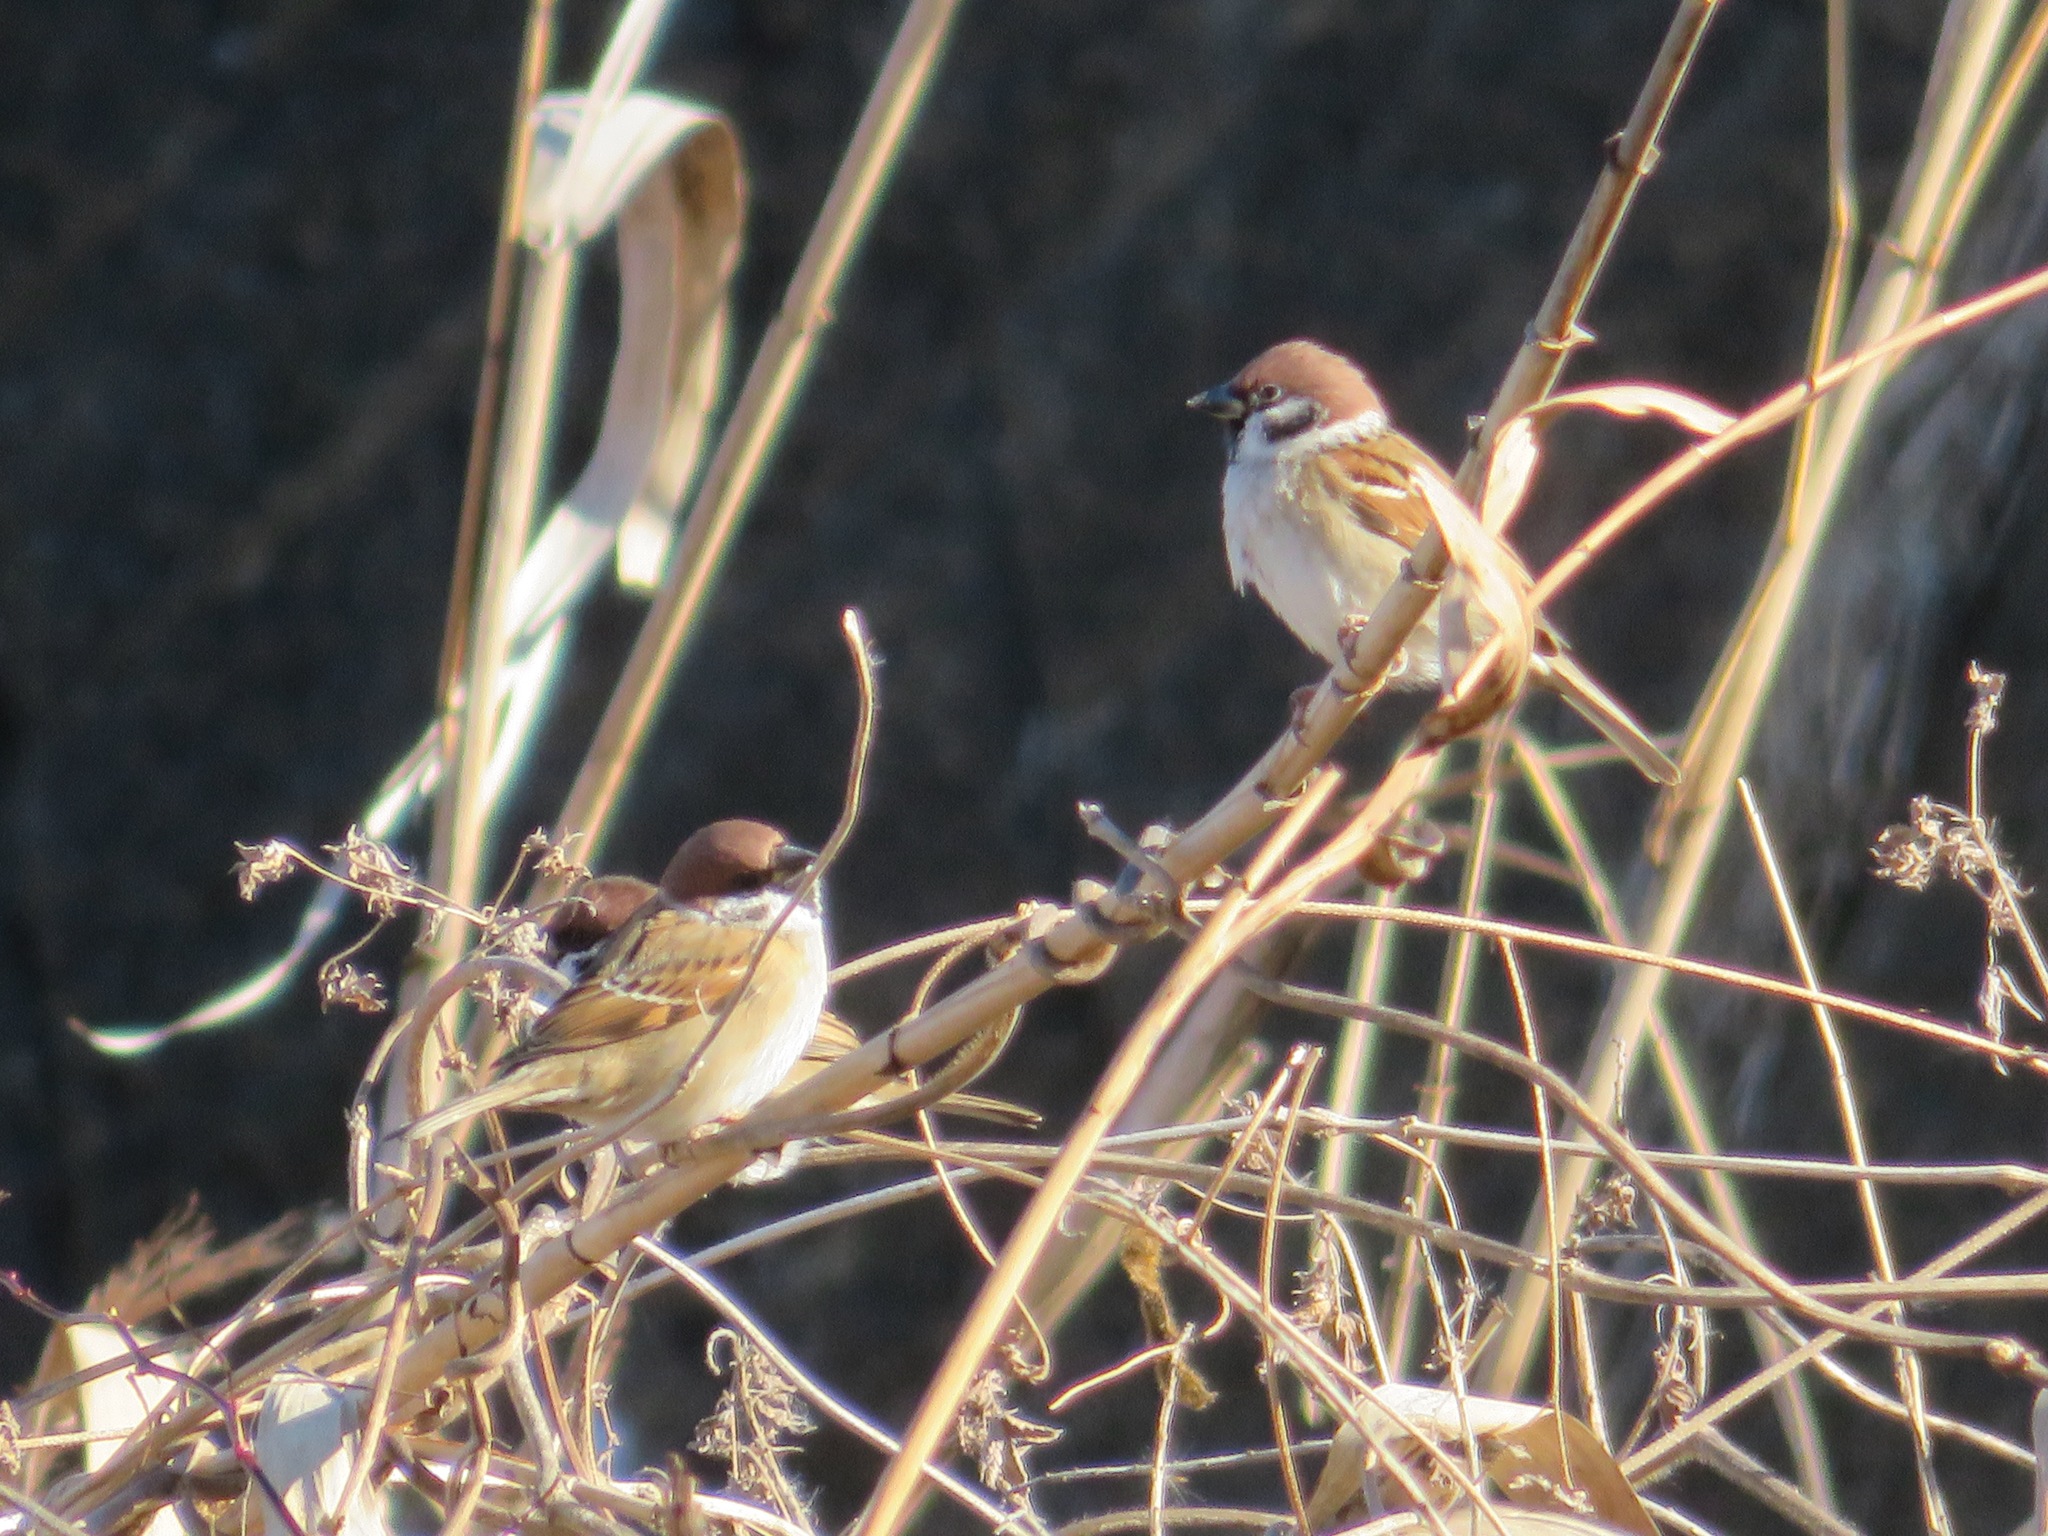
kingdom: Animalia
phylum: Chordata
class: Aves
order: Passeriformes
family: Passeridae
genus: Passer
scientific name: Passer montanus
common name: Eurasian tree sparrow
